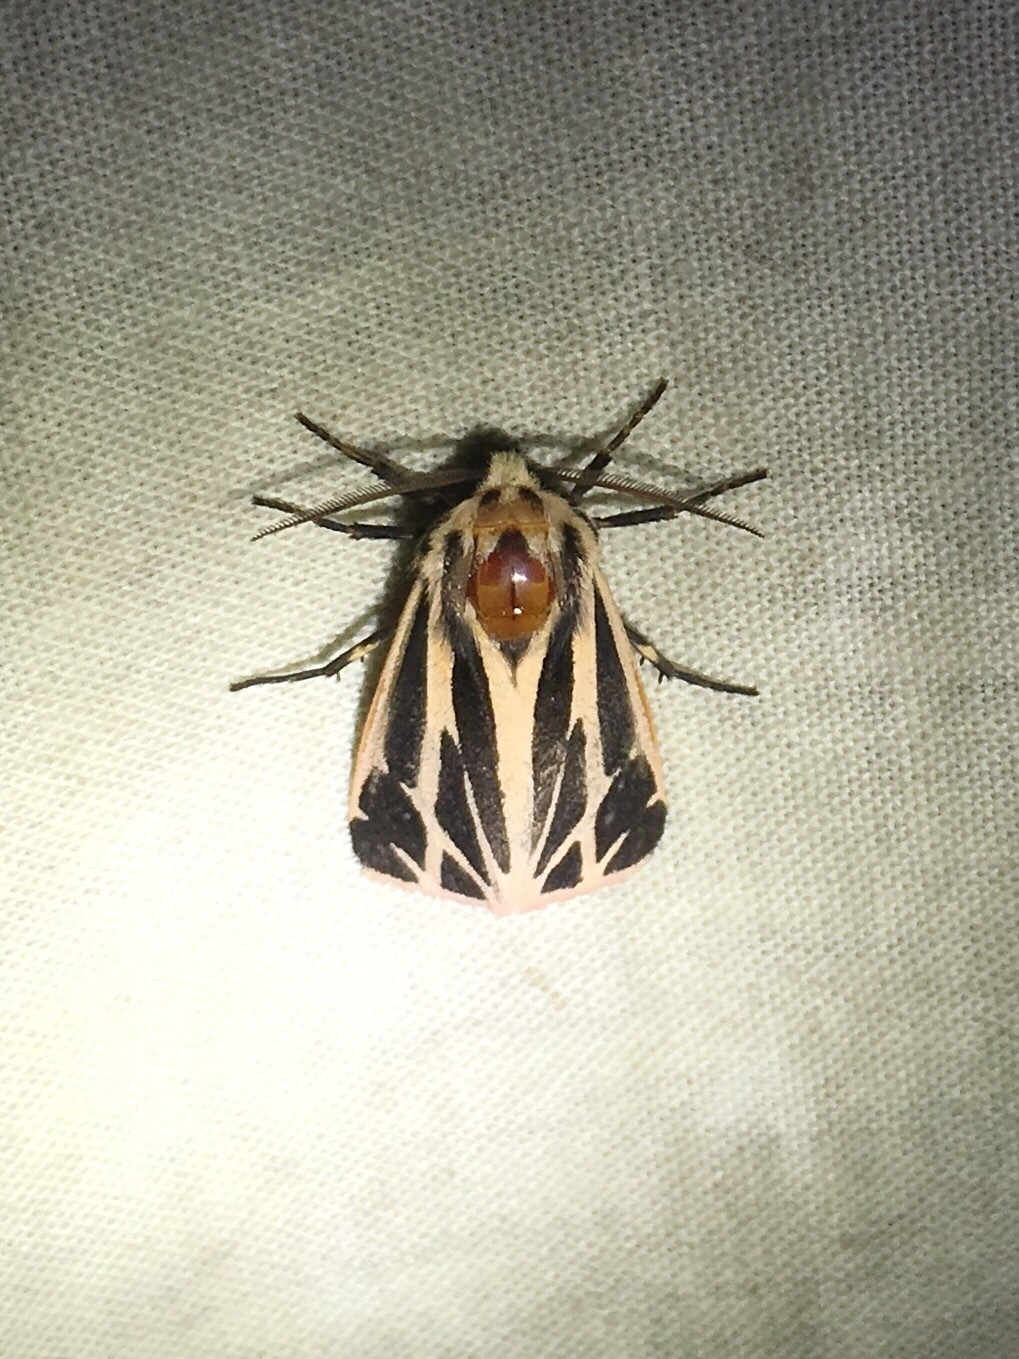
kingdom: Animalia
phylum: Arthropoda
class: Insecta
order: Lepidoptera
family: Erebidae
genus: Apantesis
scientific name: Apantesis phalerata
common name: Harnessed tiger moth
